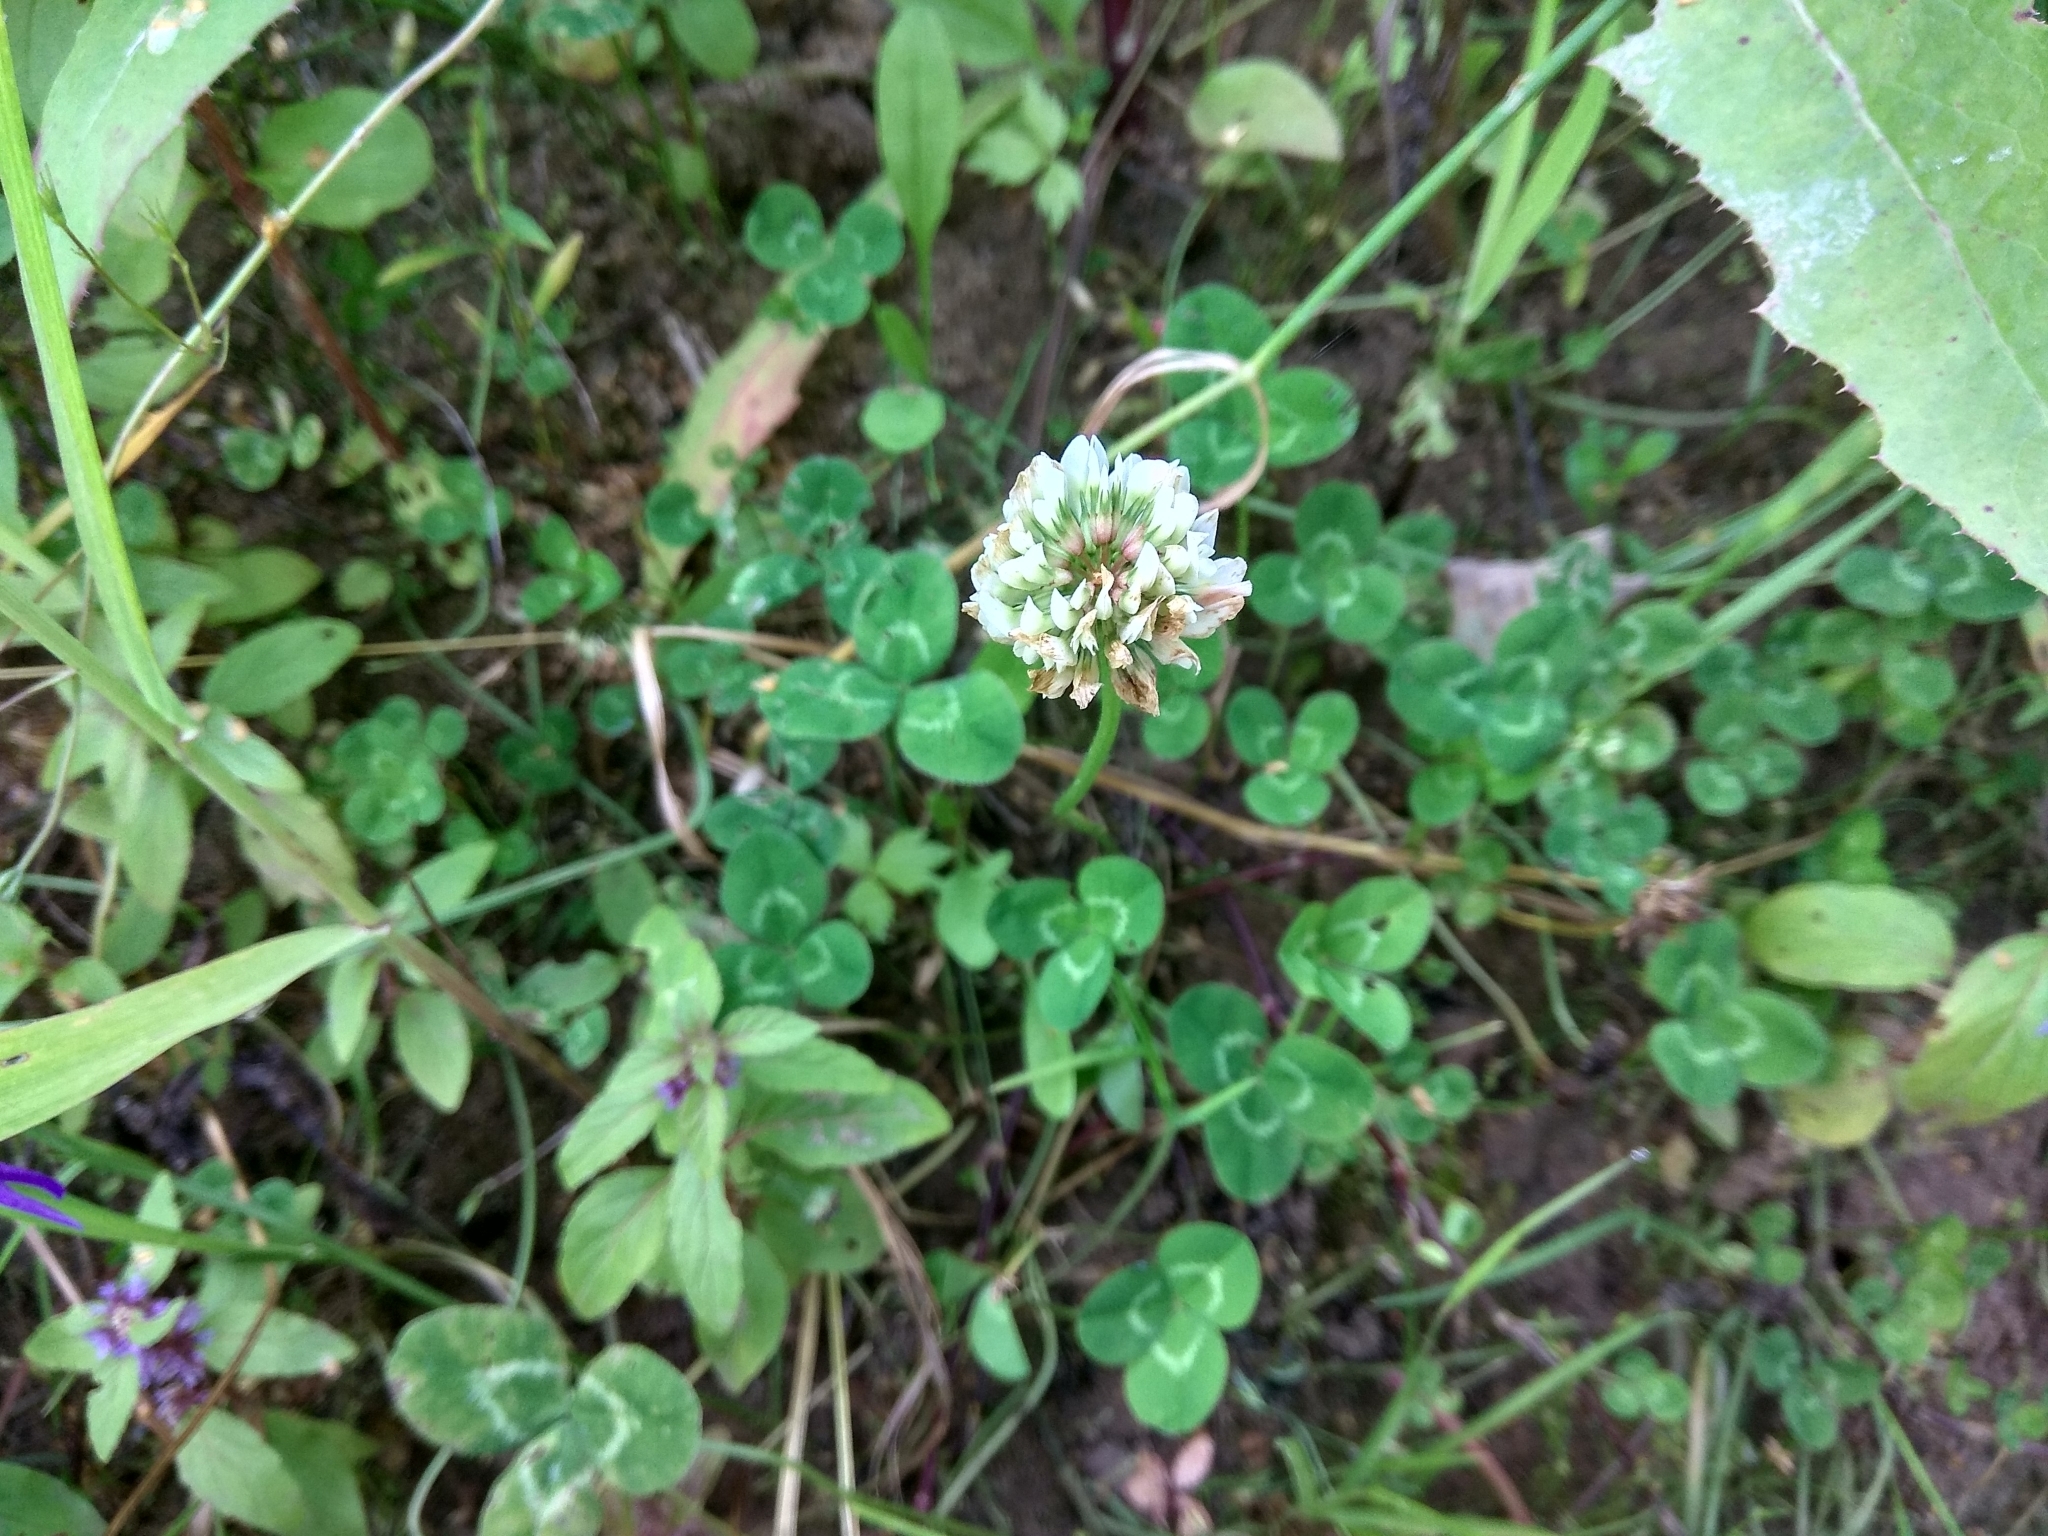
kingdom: Plantae
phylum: Tracheophyta
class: Magnoliopsida
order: Fabales
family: Fabaceae
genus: Trifolium
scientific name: Trifolium repens
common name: White clover
